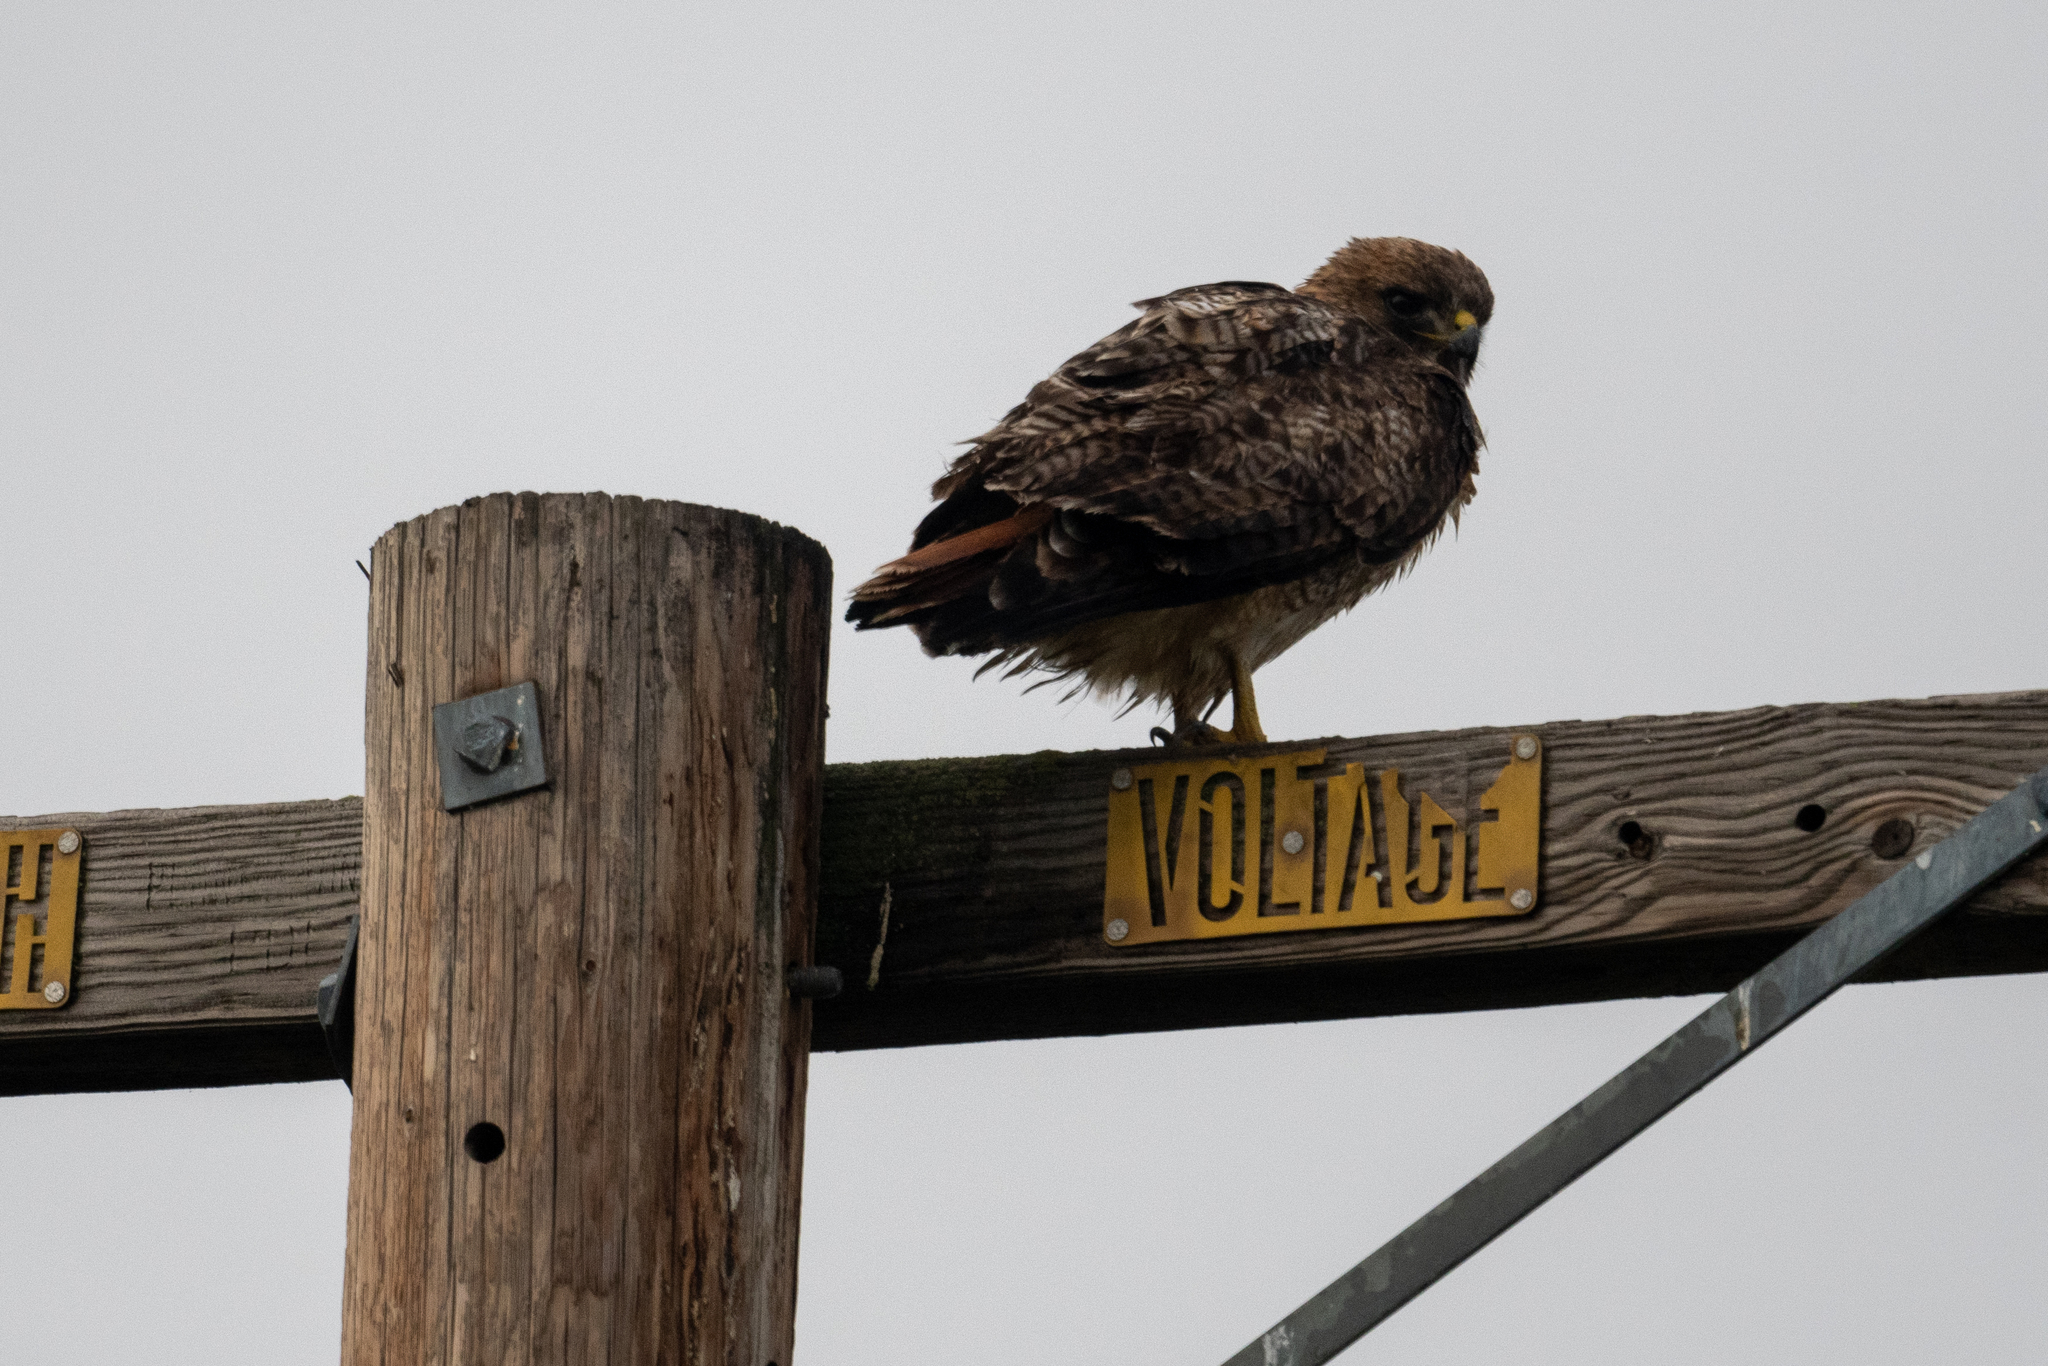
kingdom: Animalia
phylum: Chordata
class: Aves
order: Accipitriformes
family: Accipitridae
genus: Buteo
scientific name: Buteo jamaicensis
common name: Red-tailed hawk
